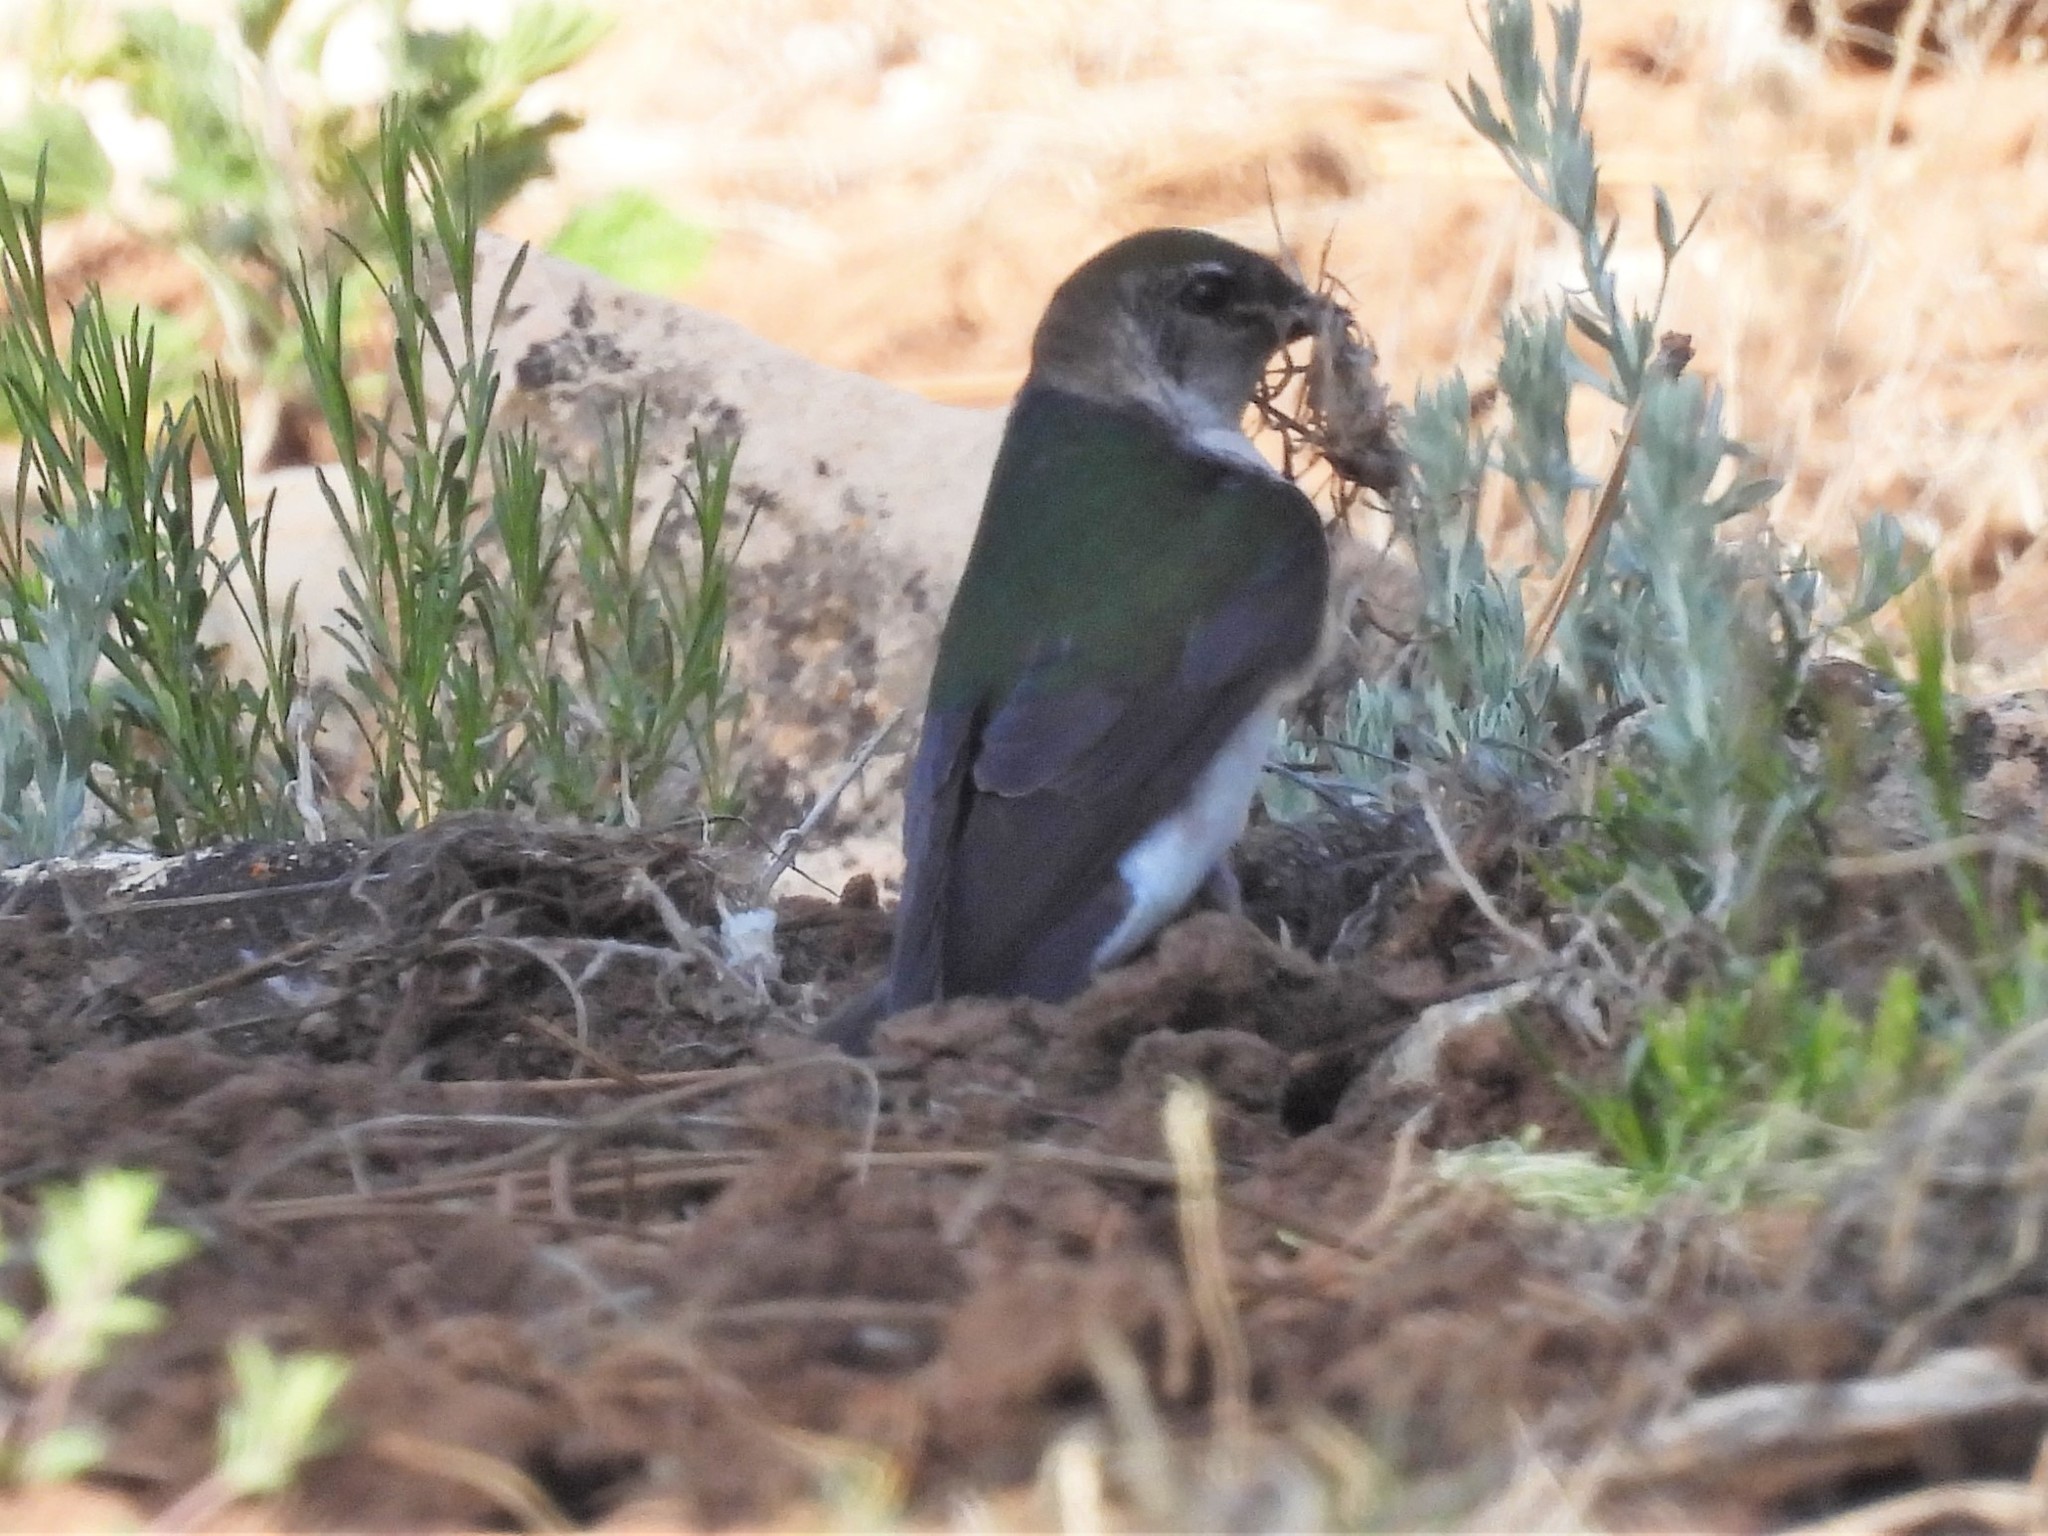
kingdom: Animalia
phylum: Chordata
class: Aves
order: Passeriformes
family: Hirundinidae
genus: Tachycineta
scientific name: Tachycineta thalassina
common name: Violet-green swallow
